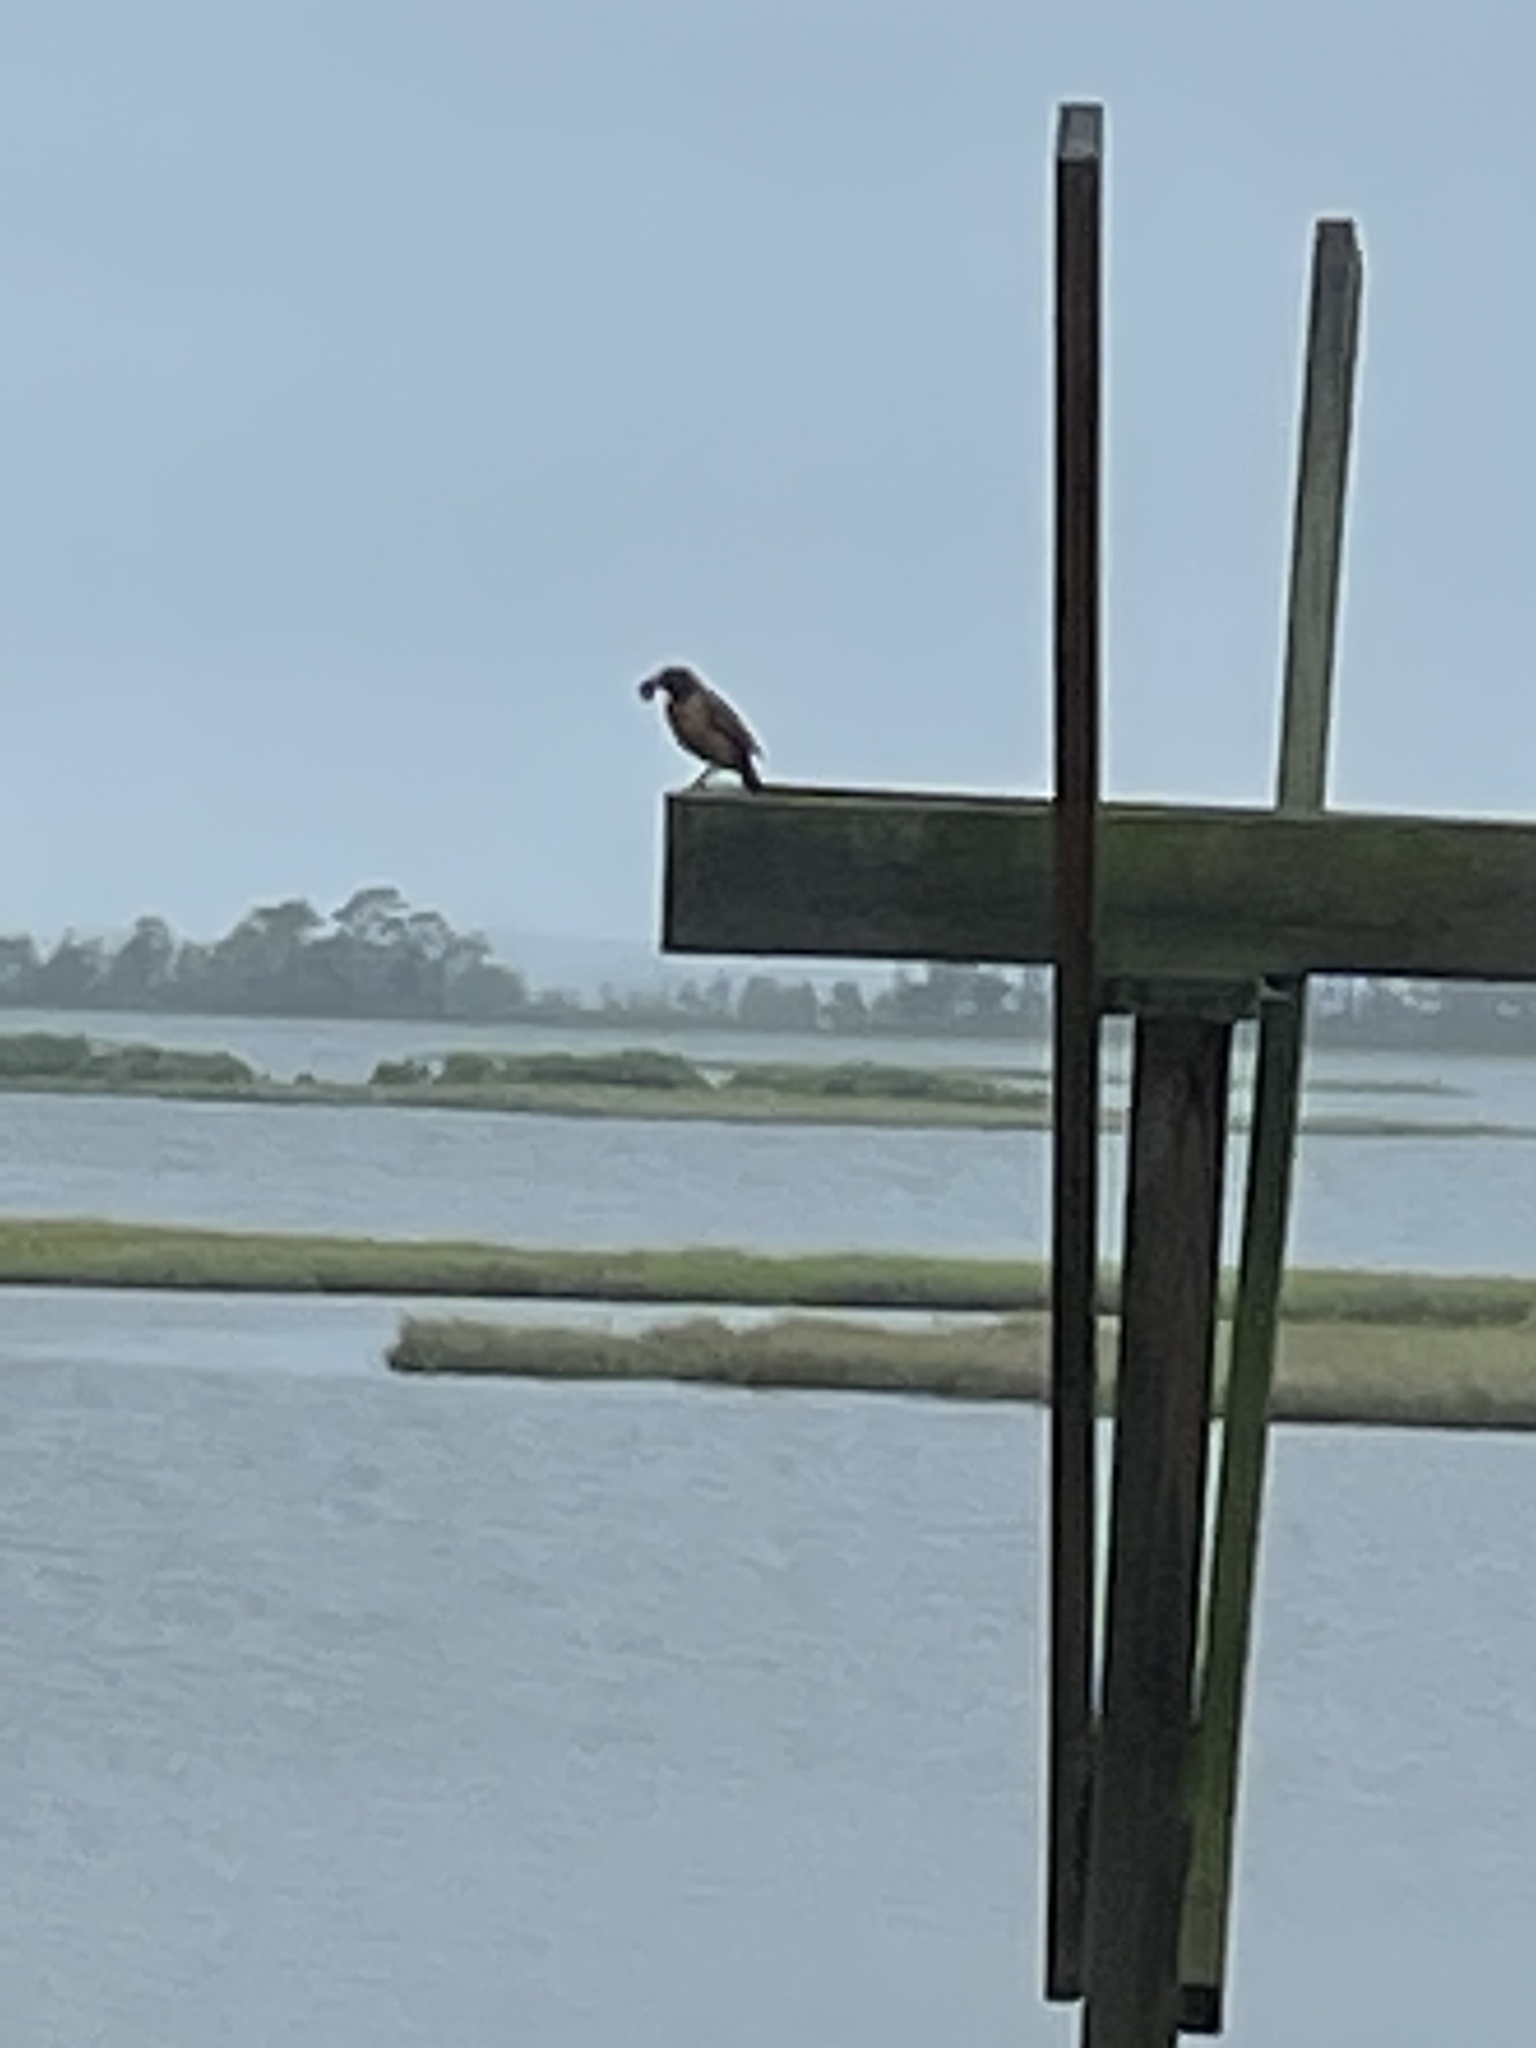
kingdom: Animalia
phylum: Chordata
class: Aves
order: Passeriformes
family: Turdidae
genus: Turdus
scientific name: Turdus migratorius
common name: American robin
